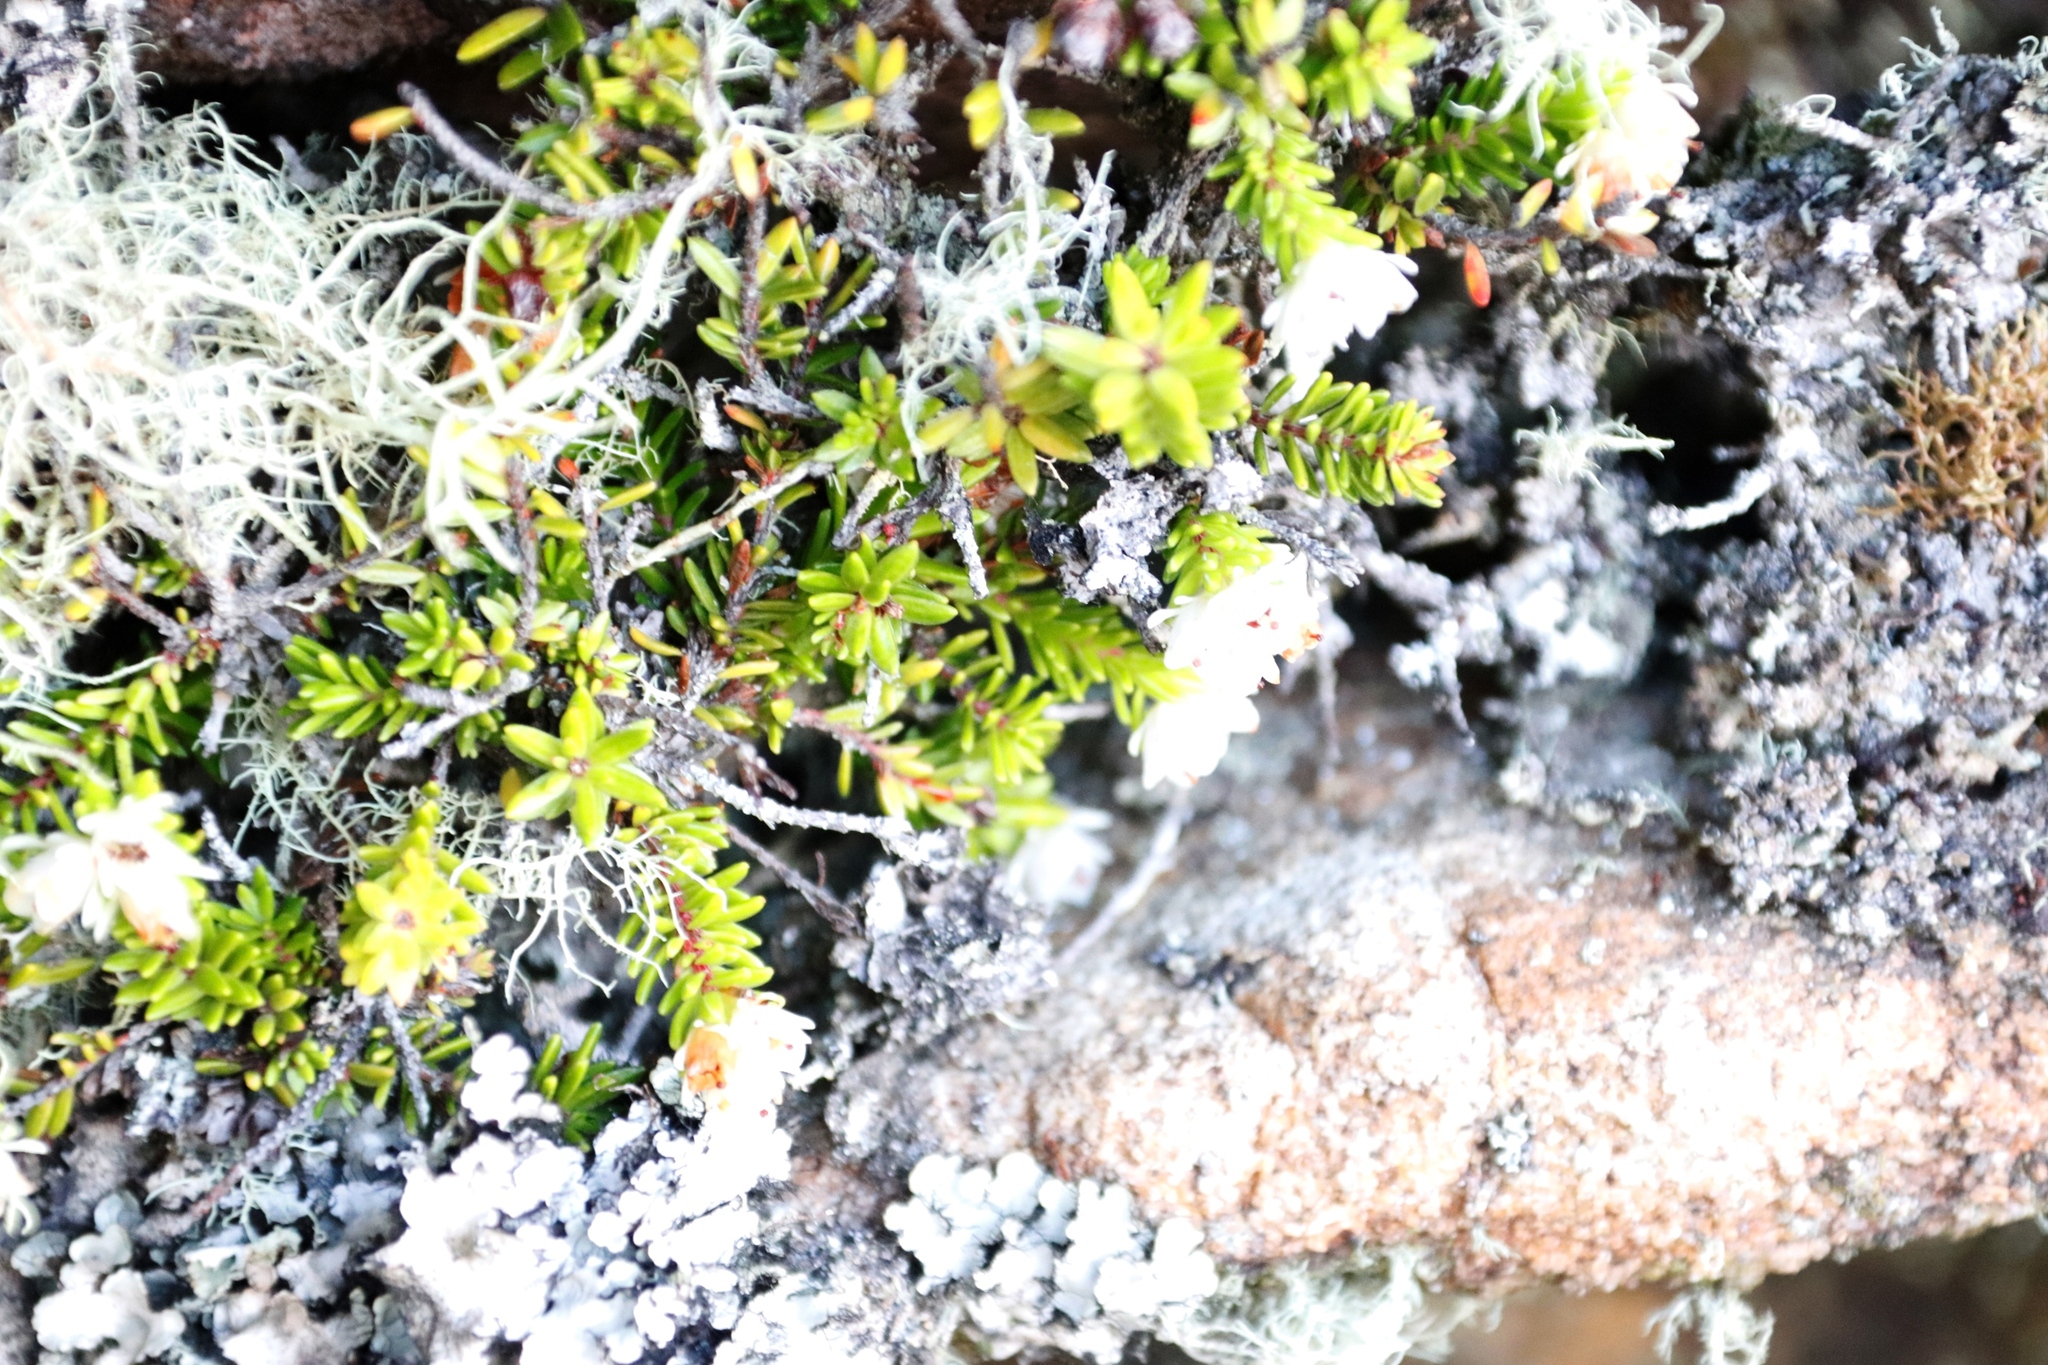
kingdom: Plantae
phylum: Tracheophyta
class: Magnoliopsida
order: Ericales
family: Ericaceae
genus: Erica
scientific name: Erica depressa
